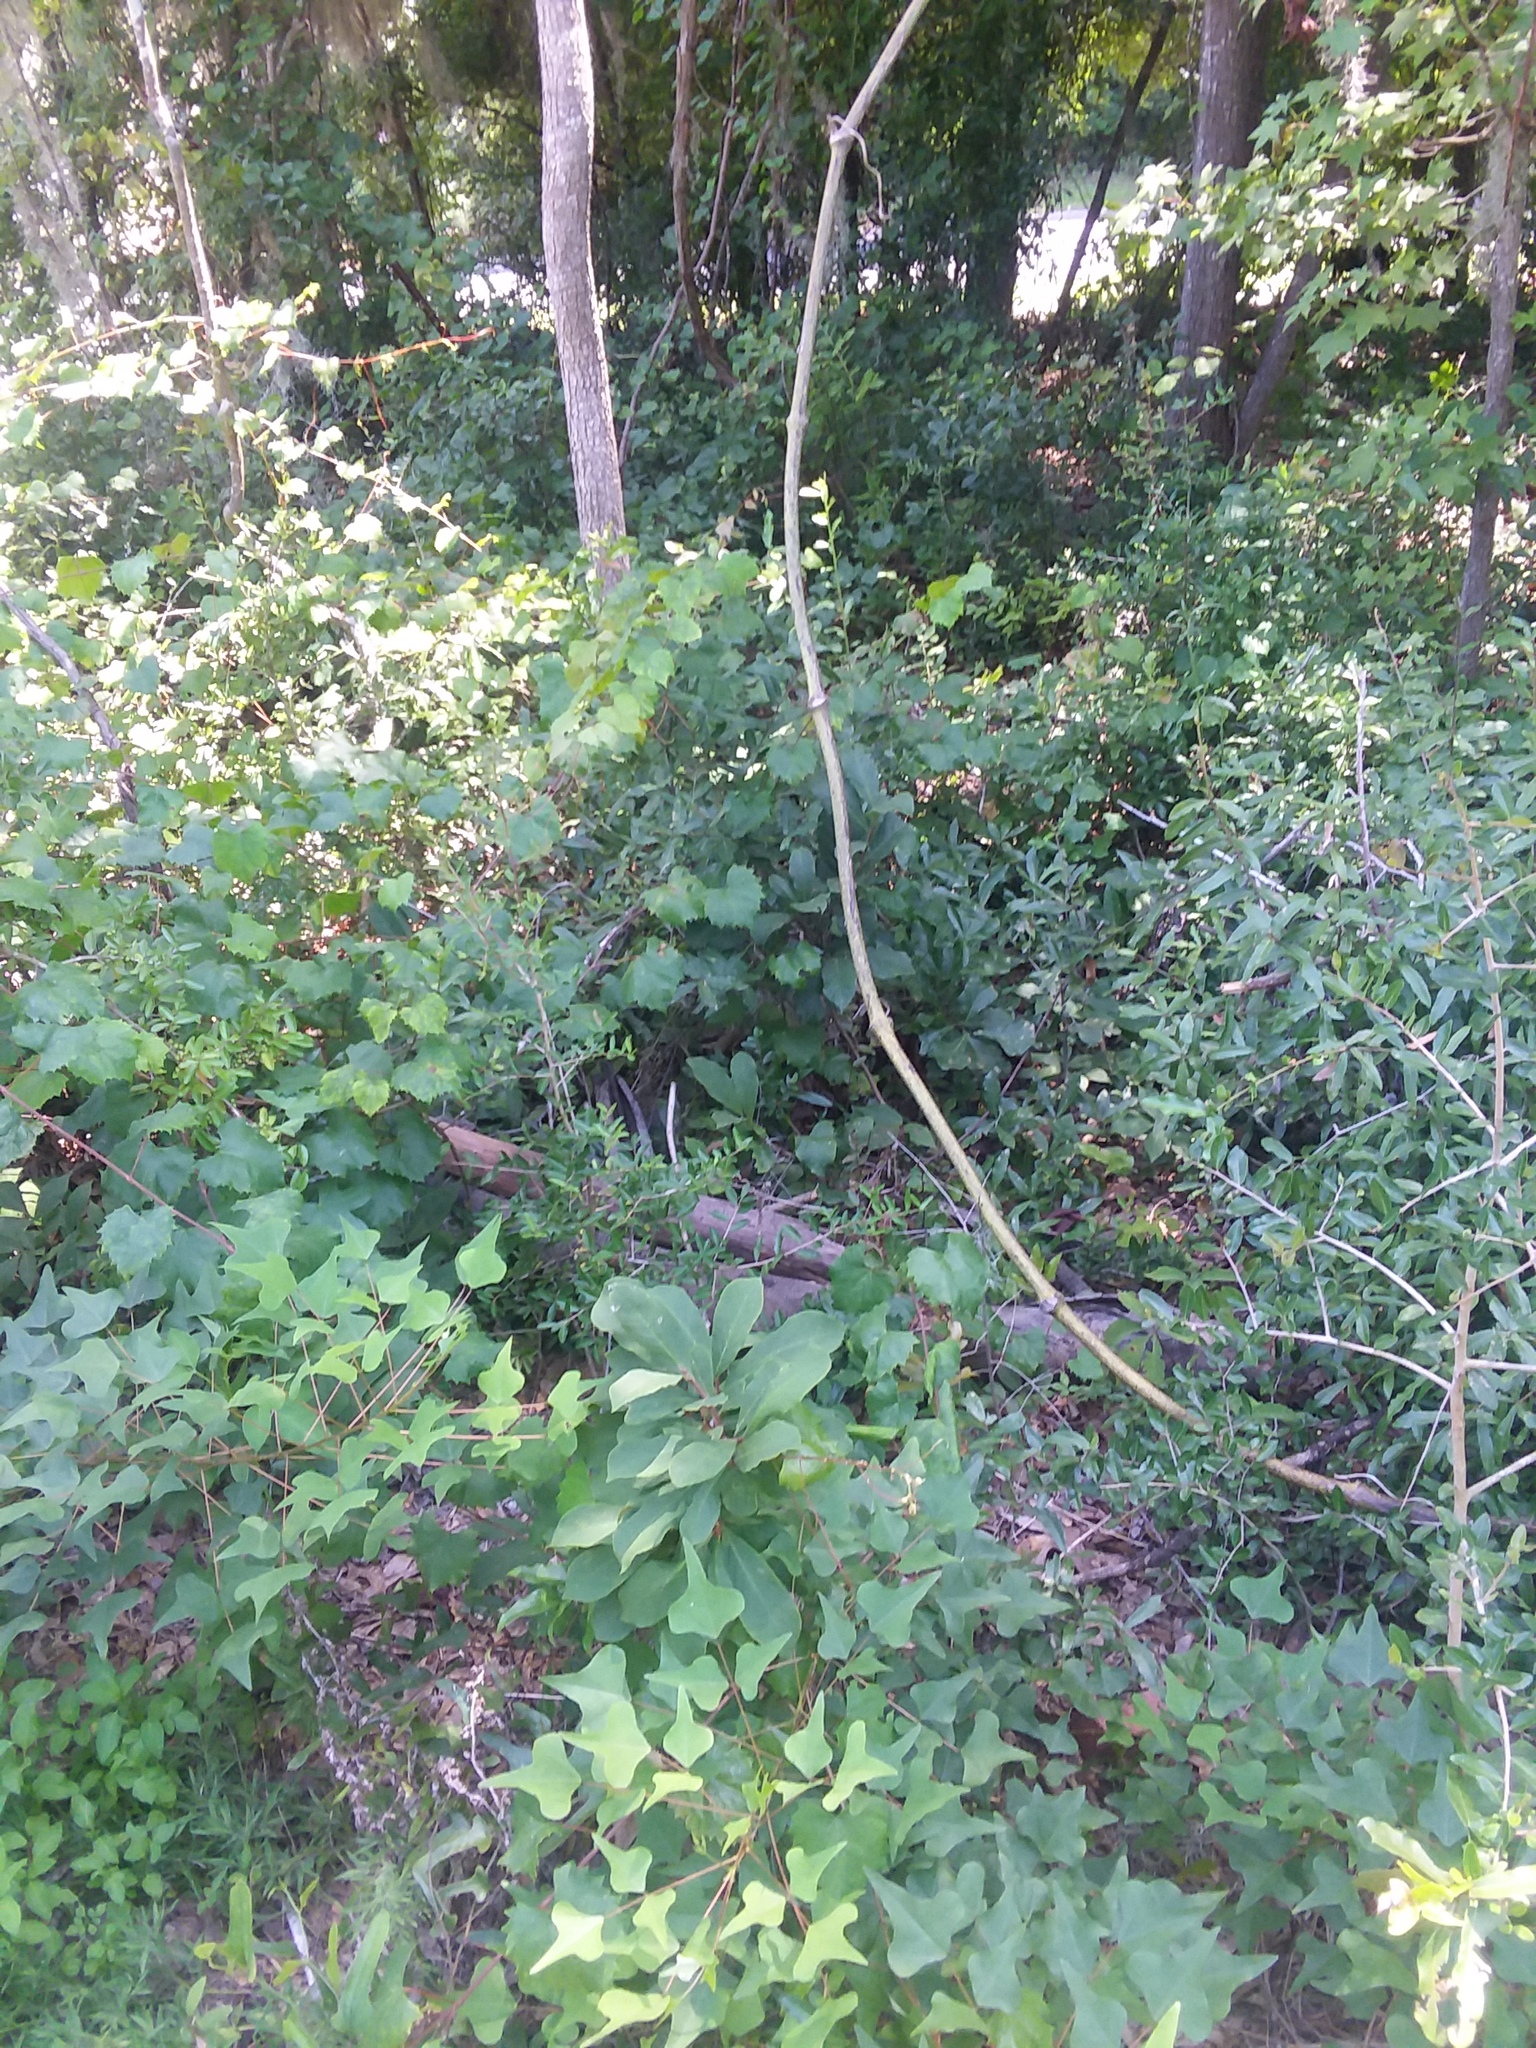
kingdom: Plantae
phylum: Tracheophyta
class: Magnoliopsida
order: Magnoliales
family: Annonaceae
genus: Asimina
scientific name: Asimina parviflora
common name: Dwarf pawpaw
